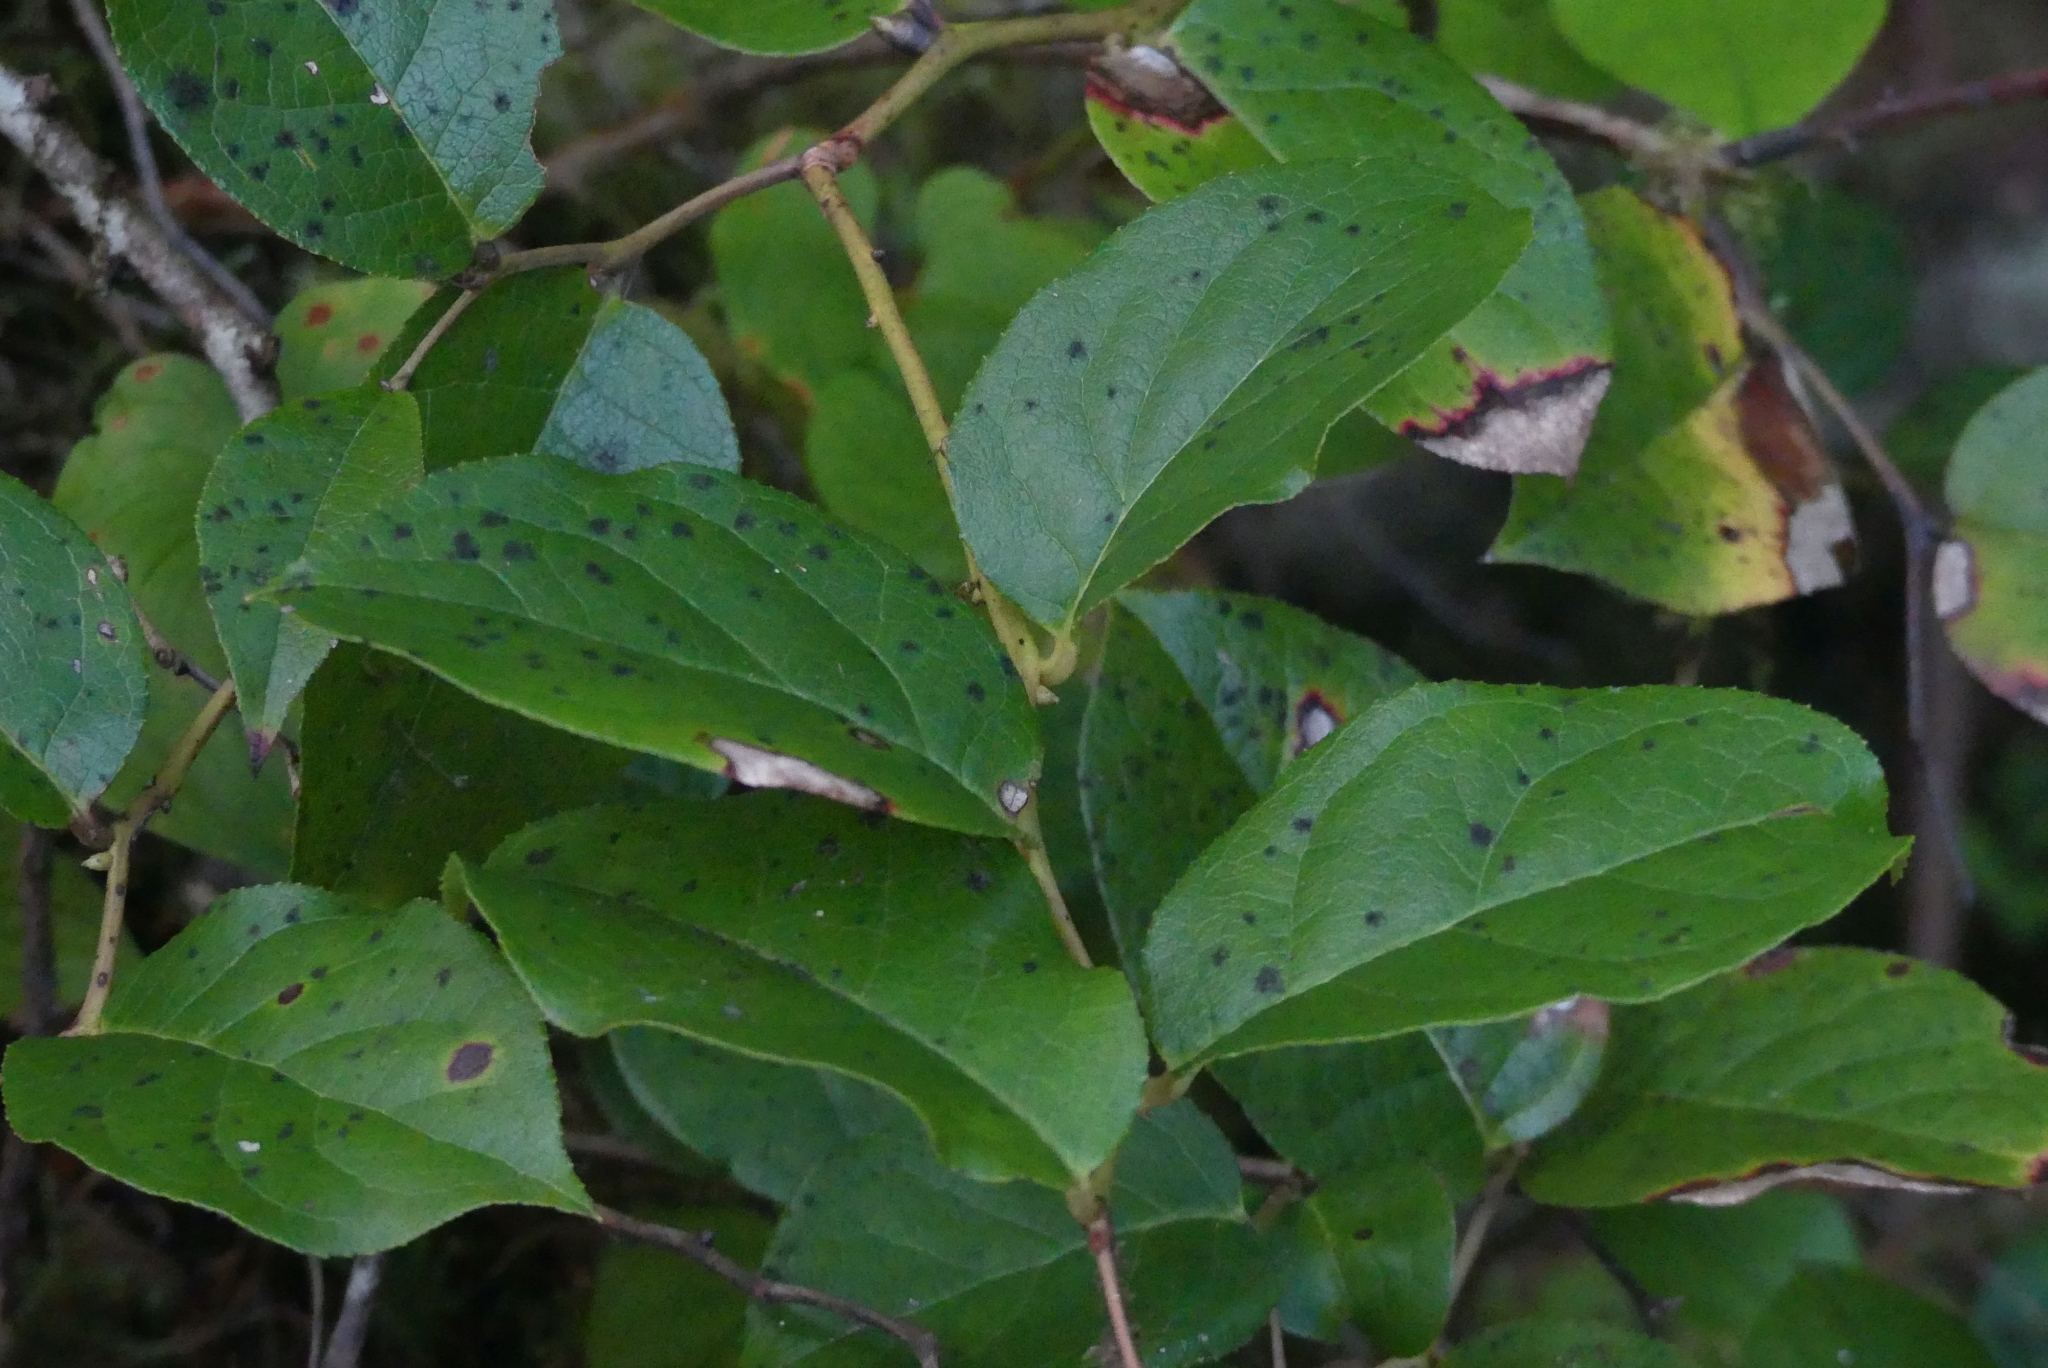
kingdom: Plantae
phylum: Tracheophyta
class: Magnoliopsida
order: Ericales
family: Ericaceae
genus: Gaultheria
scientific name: Gaultheria shallon
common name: Shallon
